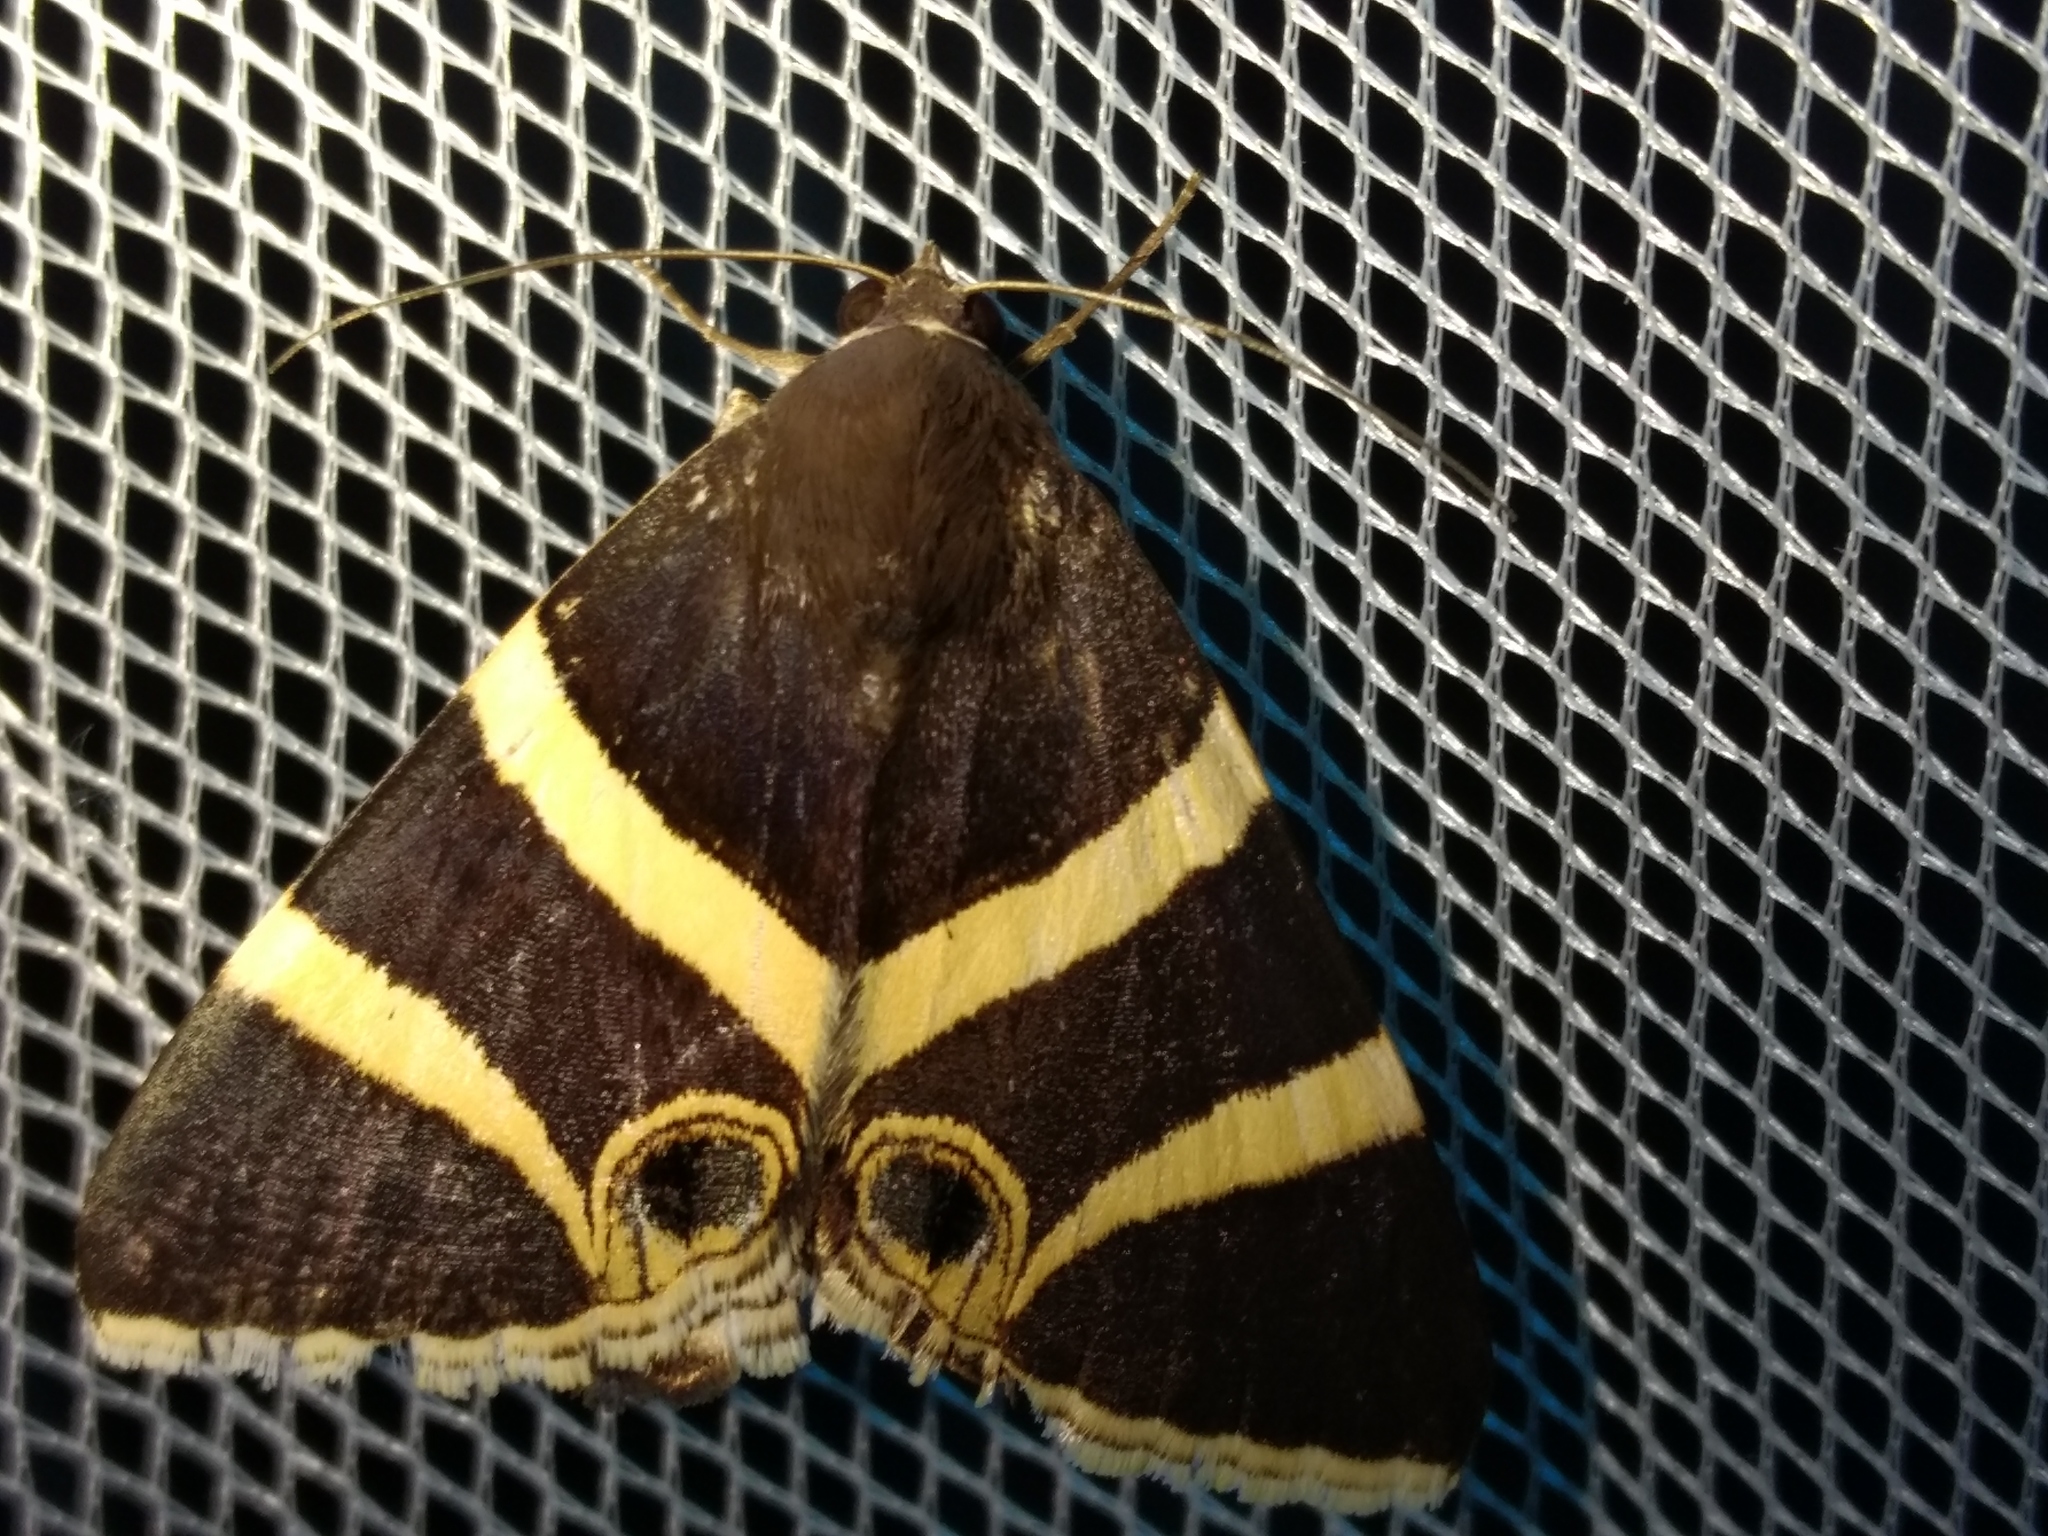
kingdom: Animalia
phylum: Arthropoda
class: Insecta
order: Lepidoptera
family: Erebidae
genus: Grammodes
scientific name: Grammodes ocellata
